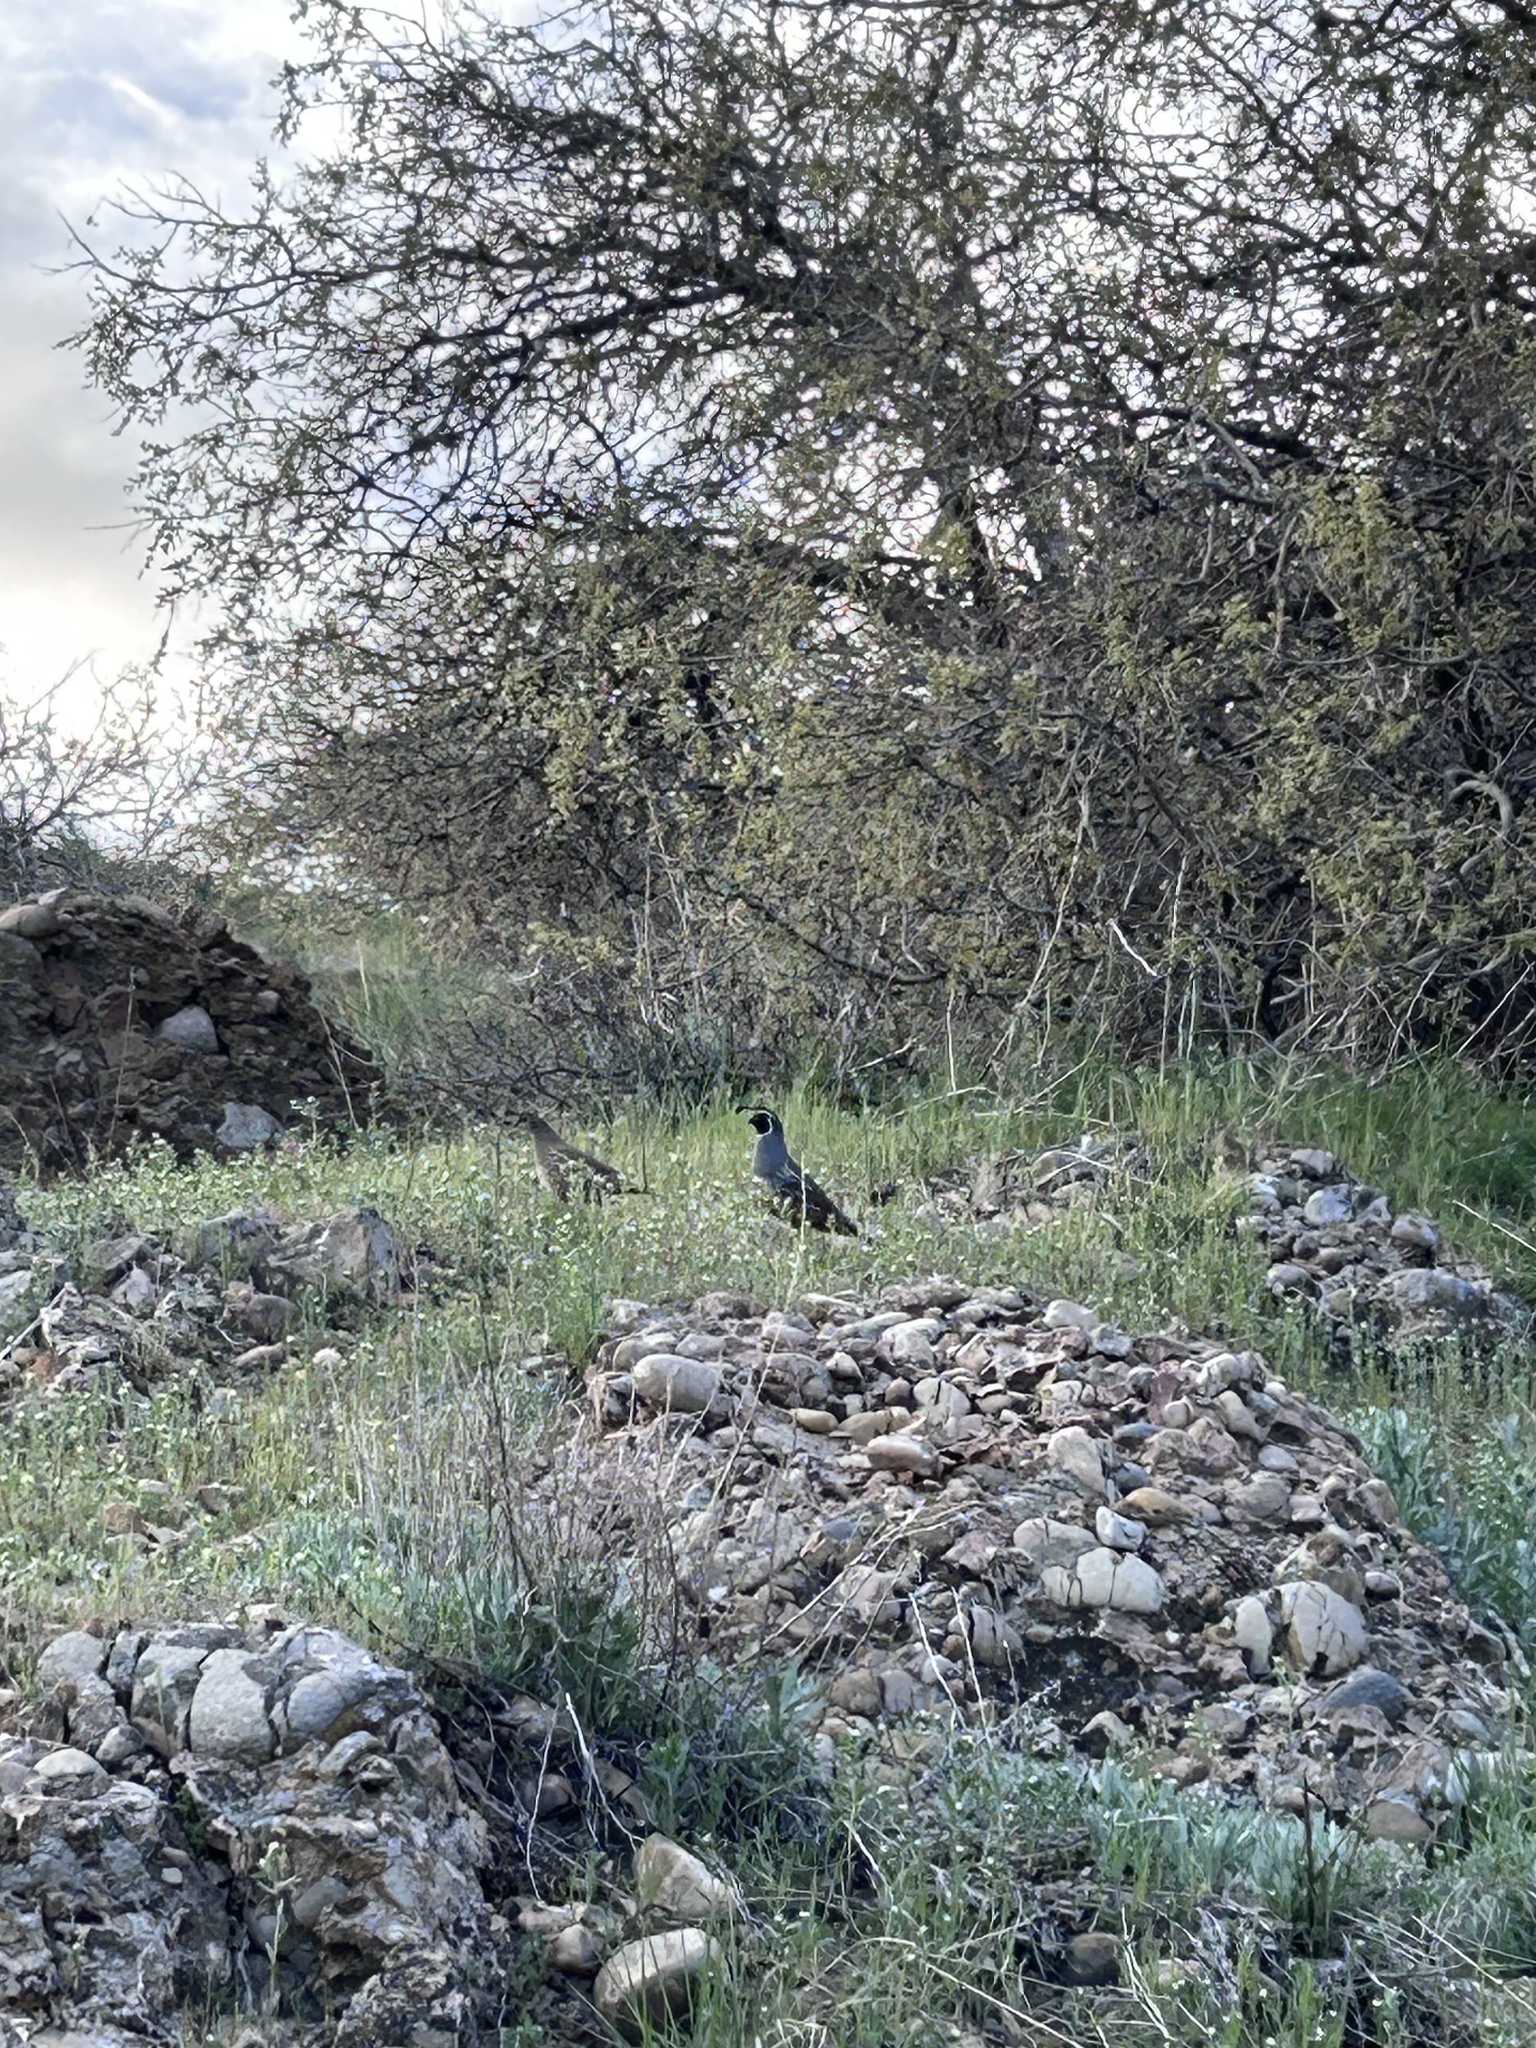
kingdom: Animalia
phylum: Chordata
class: Aves
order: Galliformes
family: Odontophoridae
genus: Callipepla
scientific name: Callipepla californica
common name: California quail
